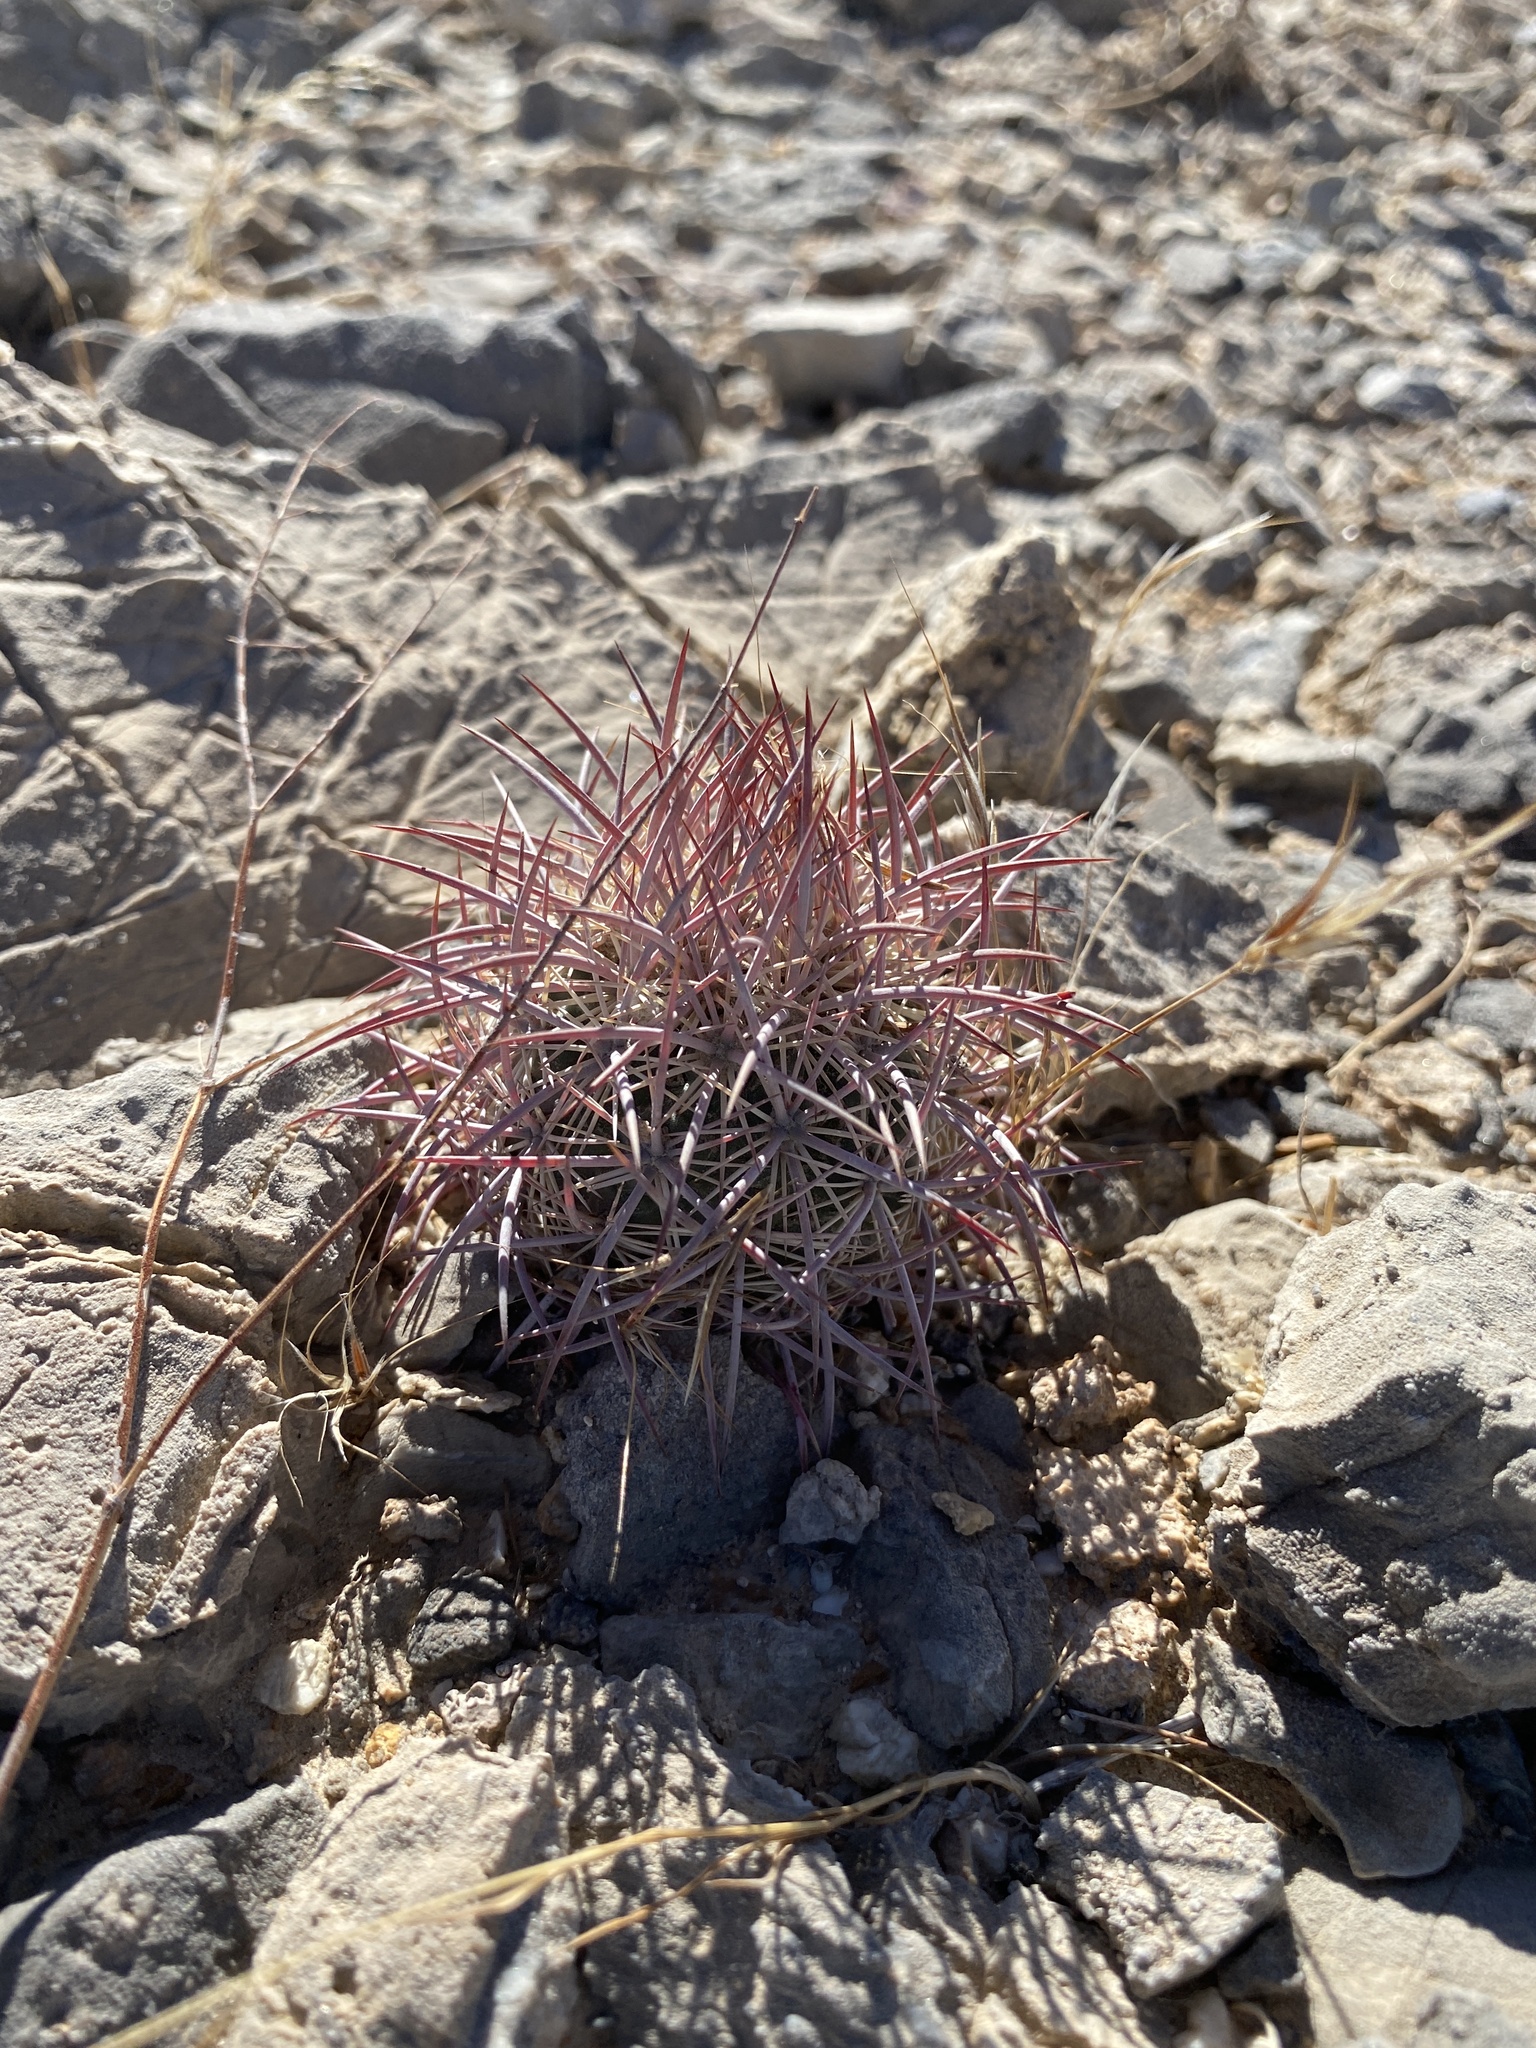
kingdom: Plantae
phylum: Tracheophyta
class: Magnoliopsida
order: Caryophyllales
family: Cactaceae
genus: Sclerocactus
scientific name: Sclerocactus johnsonii
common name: Eight-spine fishhook cactus
